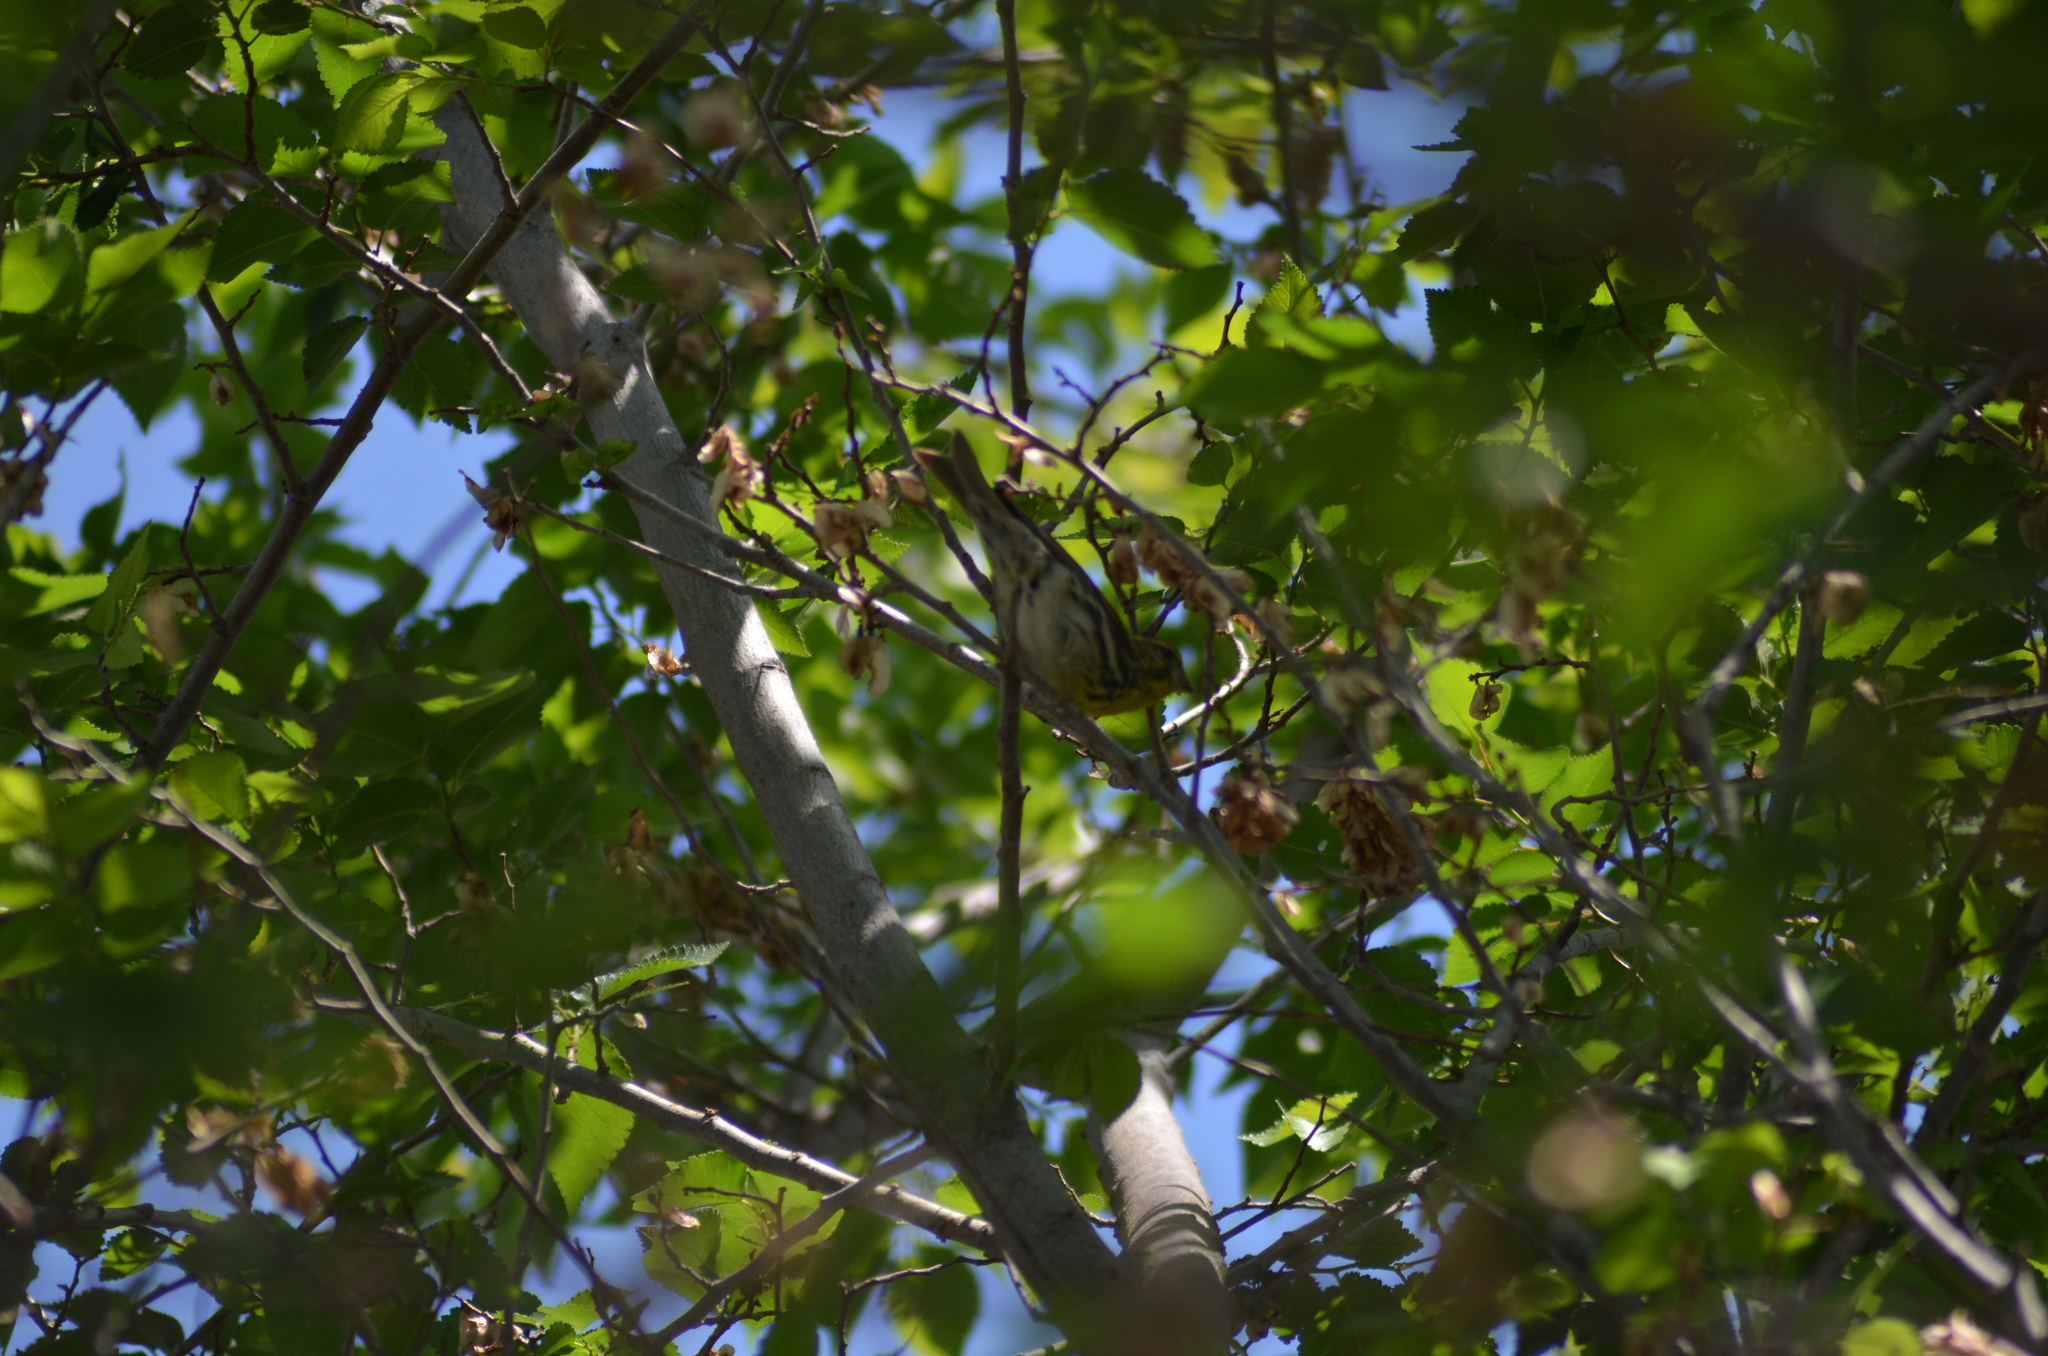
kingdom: Animalia
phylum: Chordata
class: Aves
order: Passeriformes
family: Fringillidae
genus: Serinus
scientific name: Serinus serinus
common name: European serin
